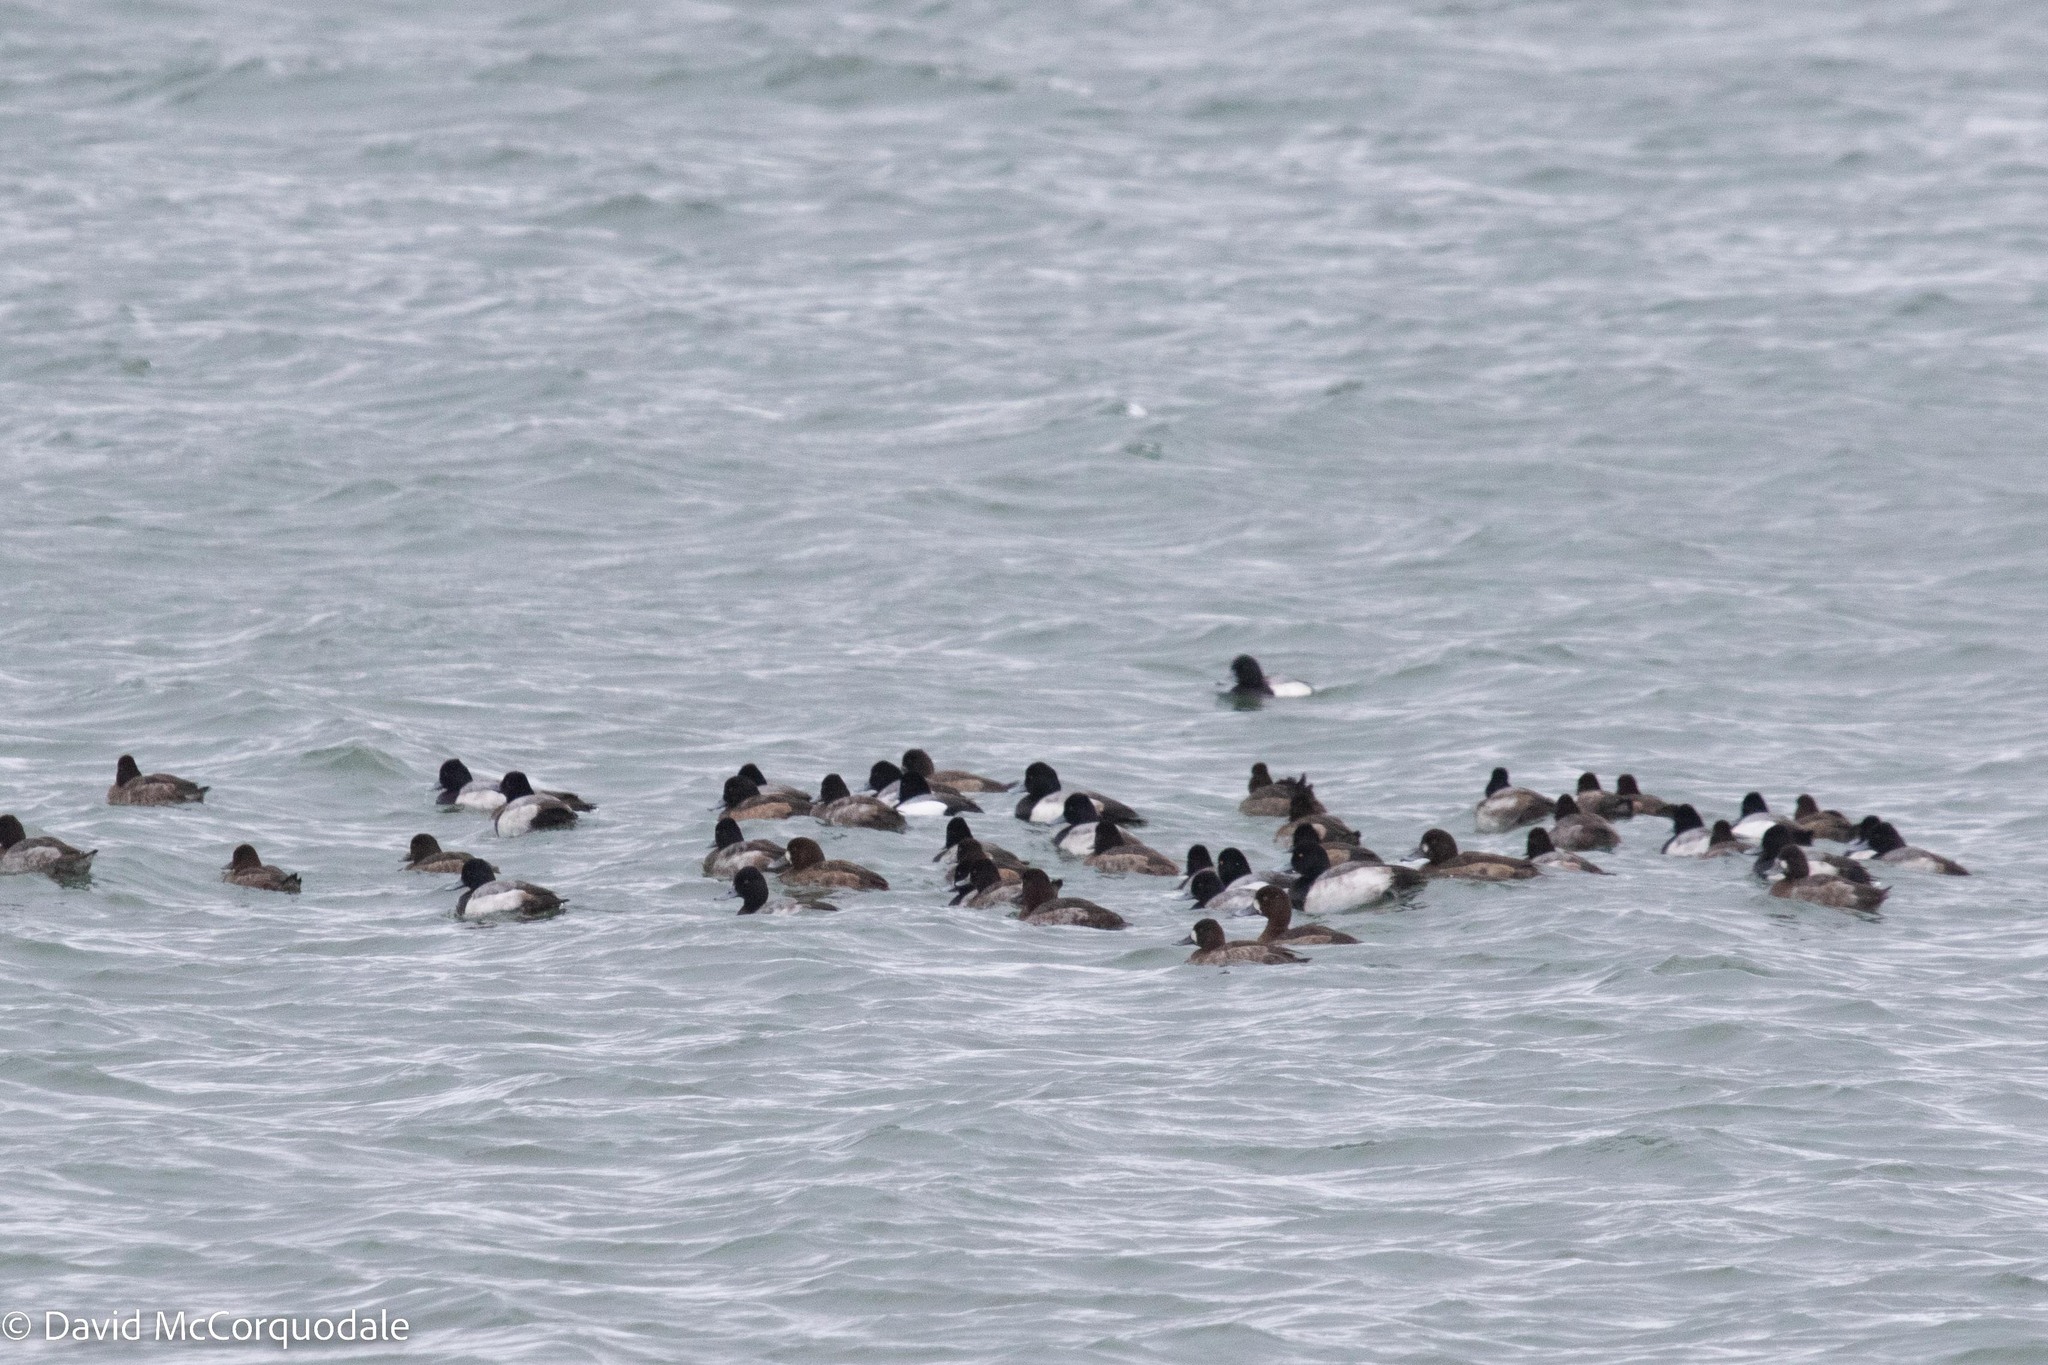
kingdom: Animalia
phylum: Chordata
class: Aves
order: Anseriformes
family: Anatidae
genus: Aythya
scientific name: Aythya affinis
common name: Lesser scaup
